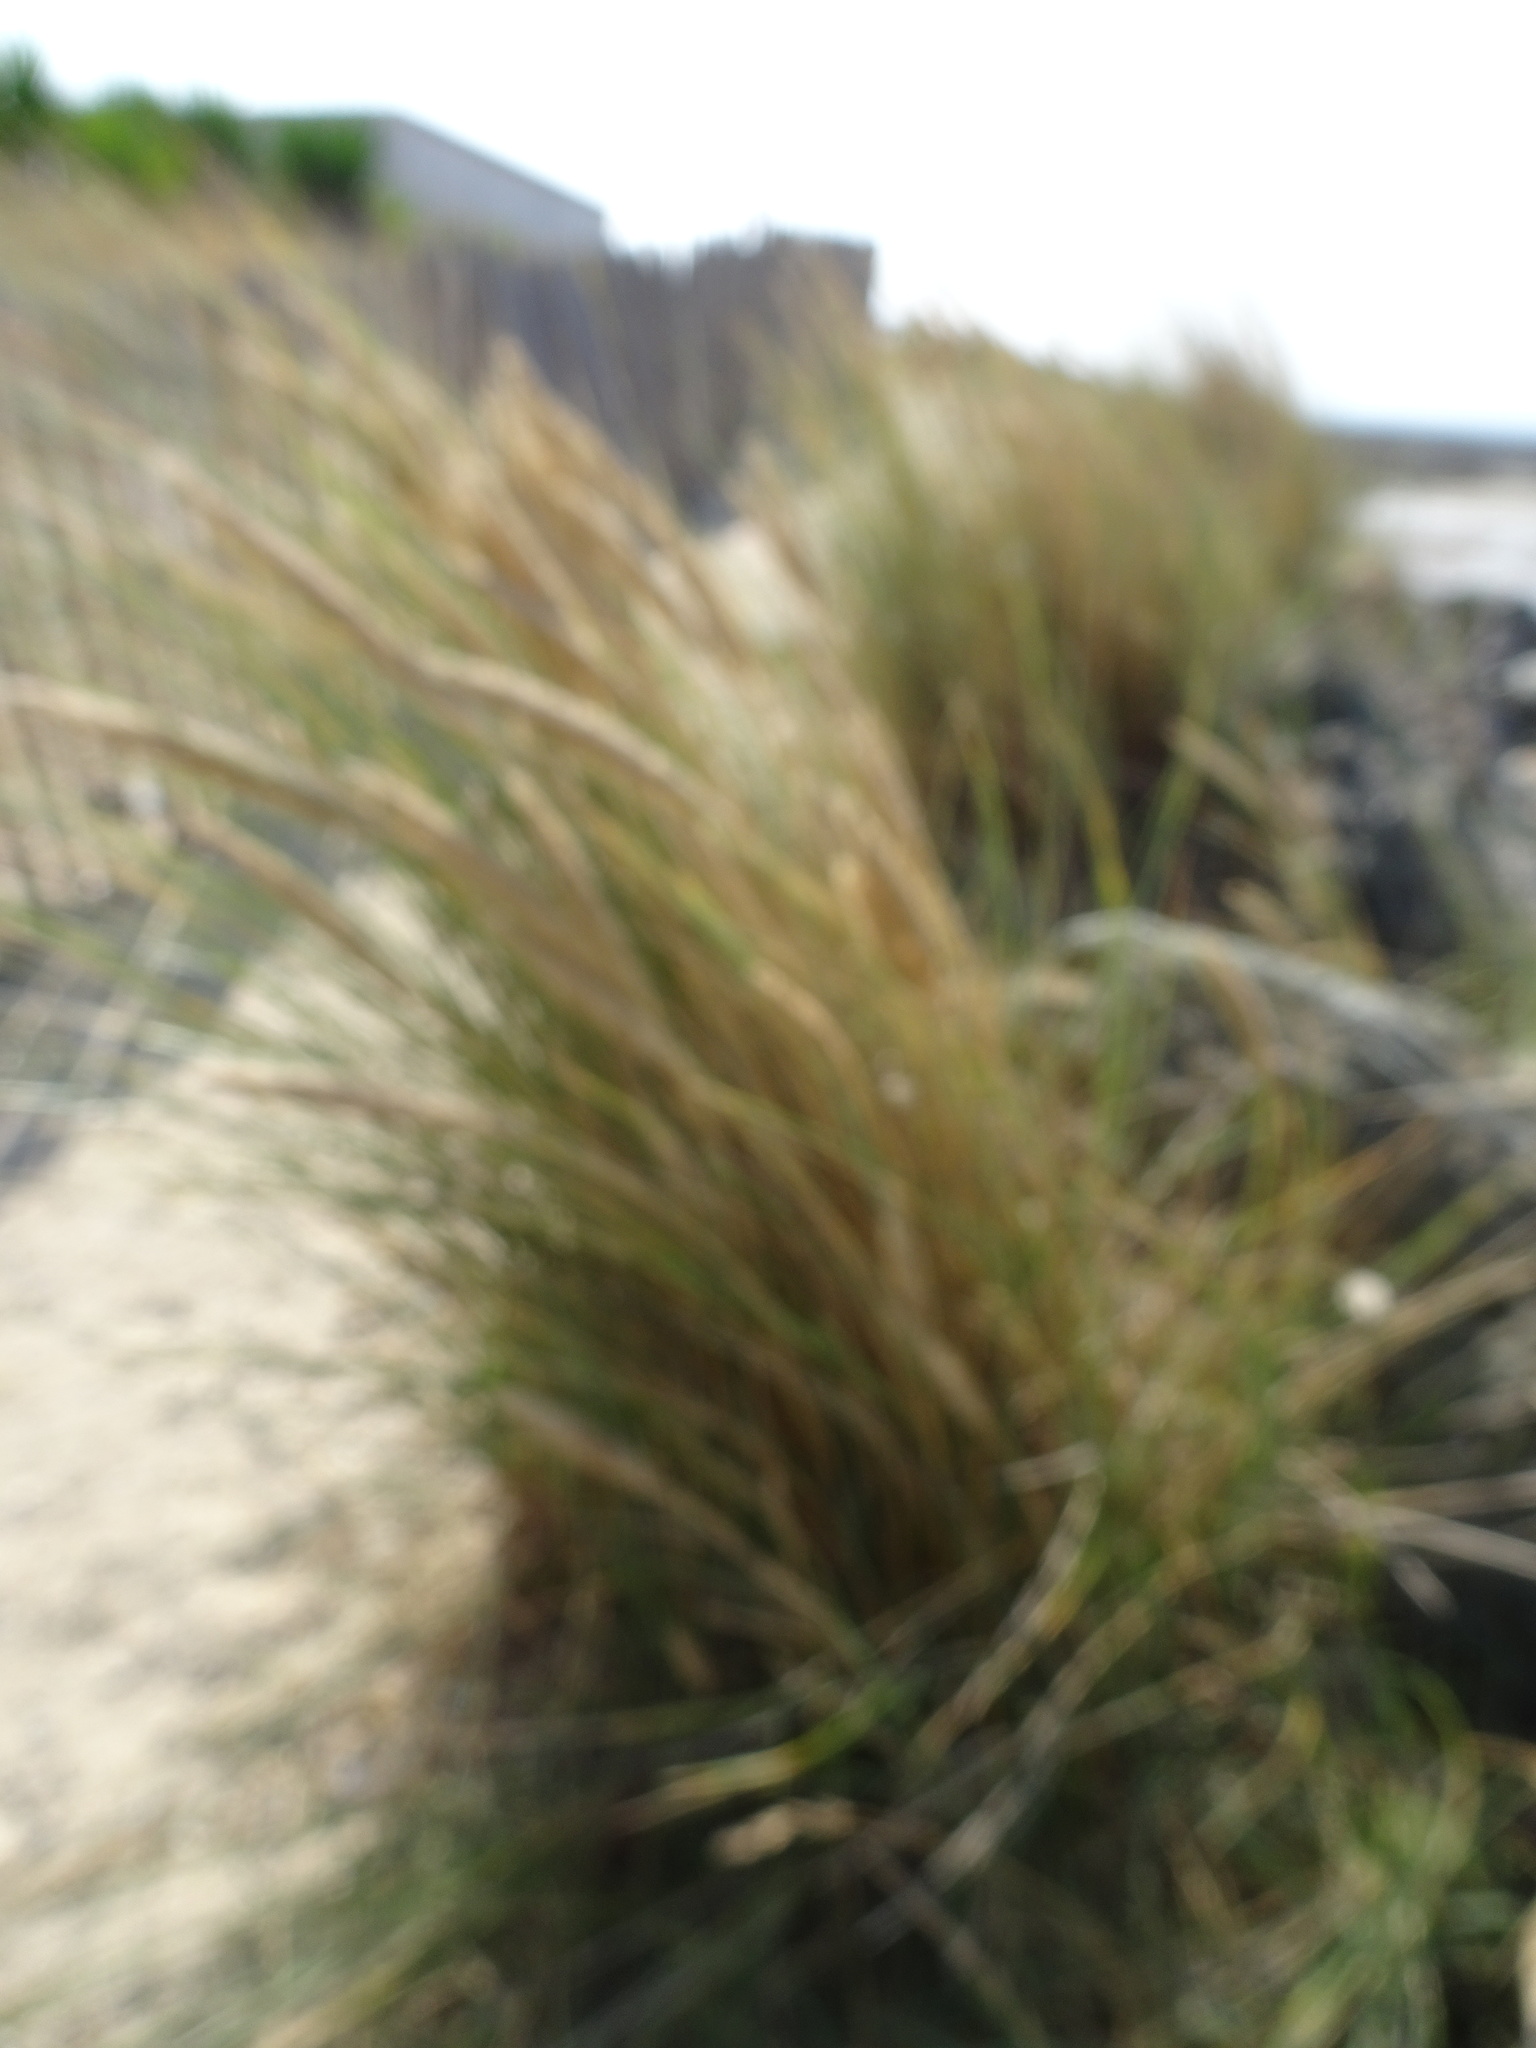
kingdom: Plantae
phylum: Tracheophyta
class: Liliopsida
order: Poales
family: Poaceae
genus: Calamagrostis
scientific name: Calamagrostis arenaria
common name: European beachgrass
